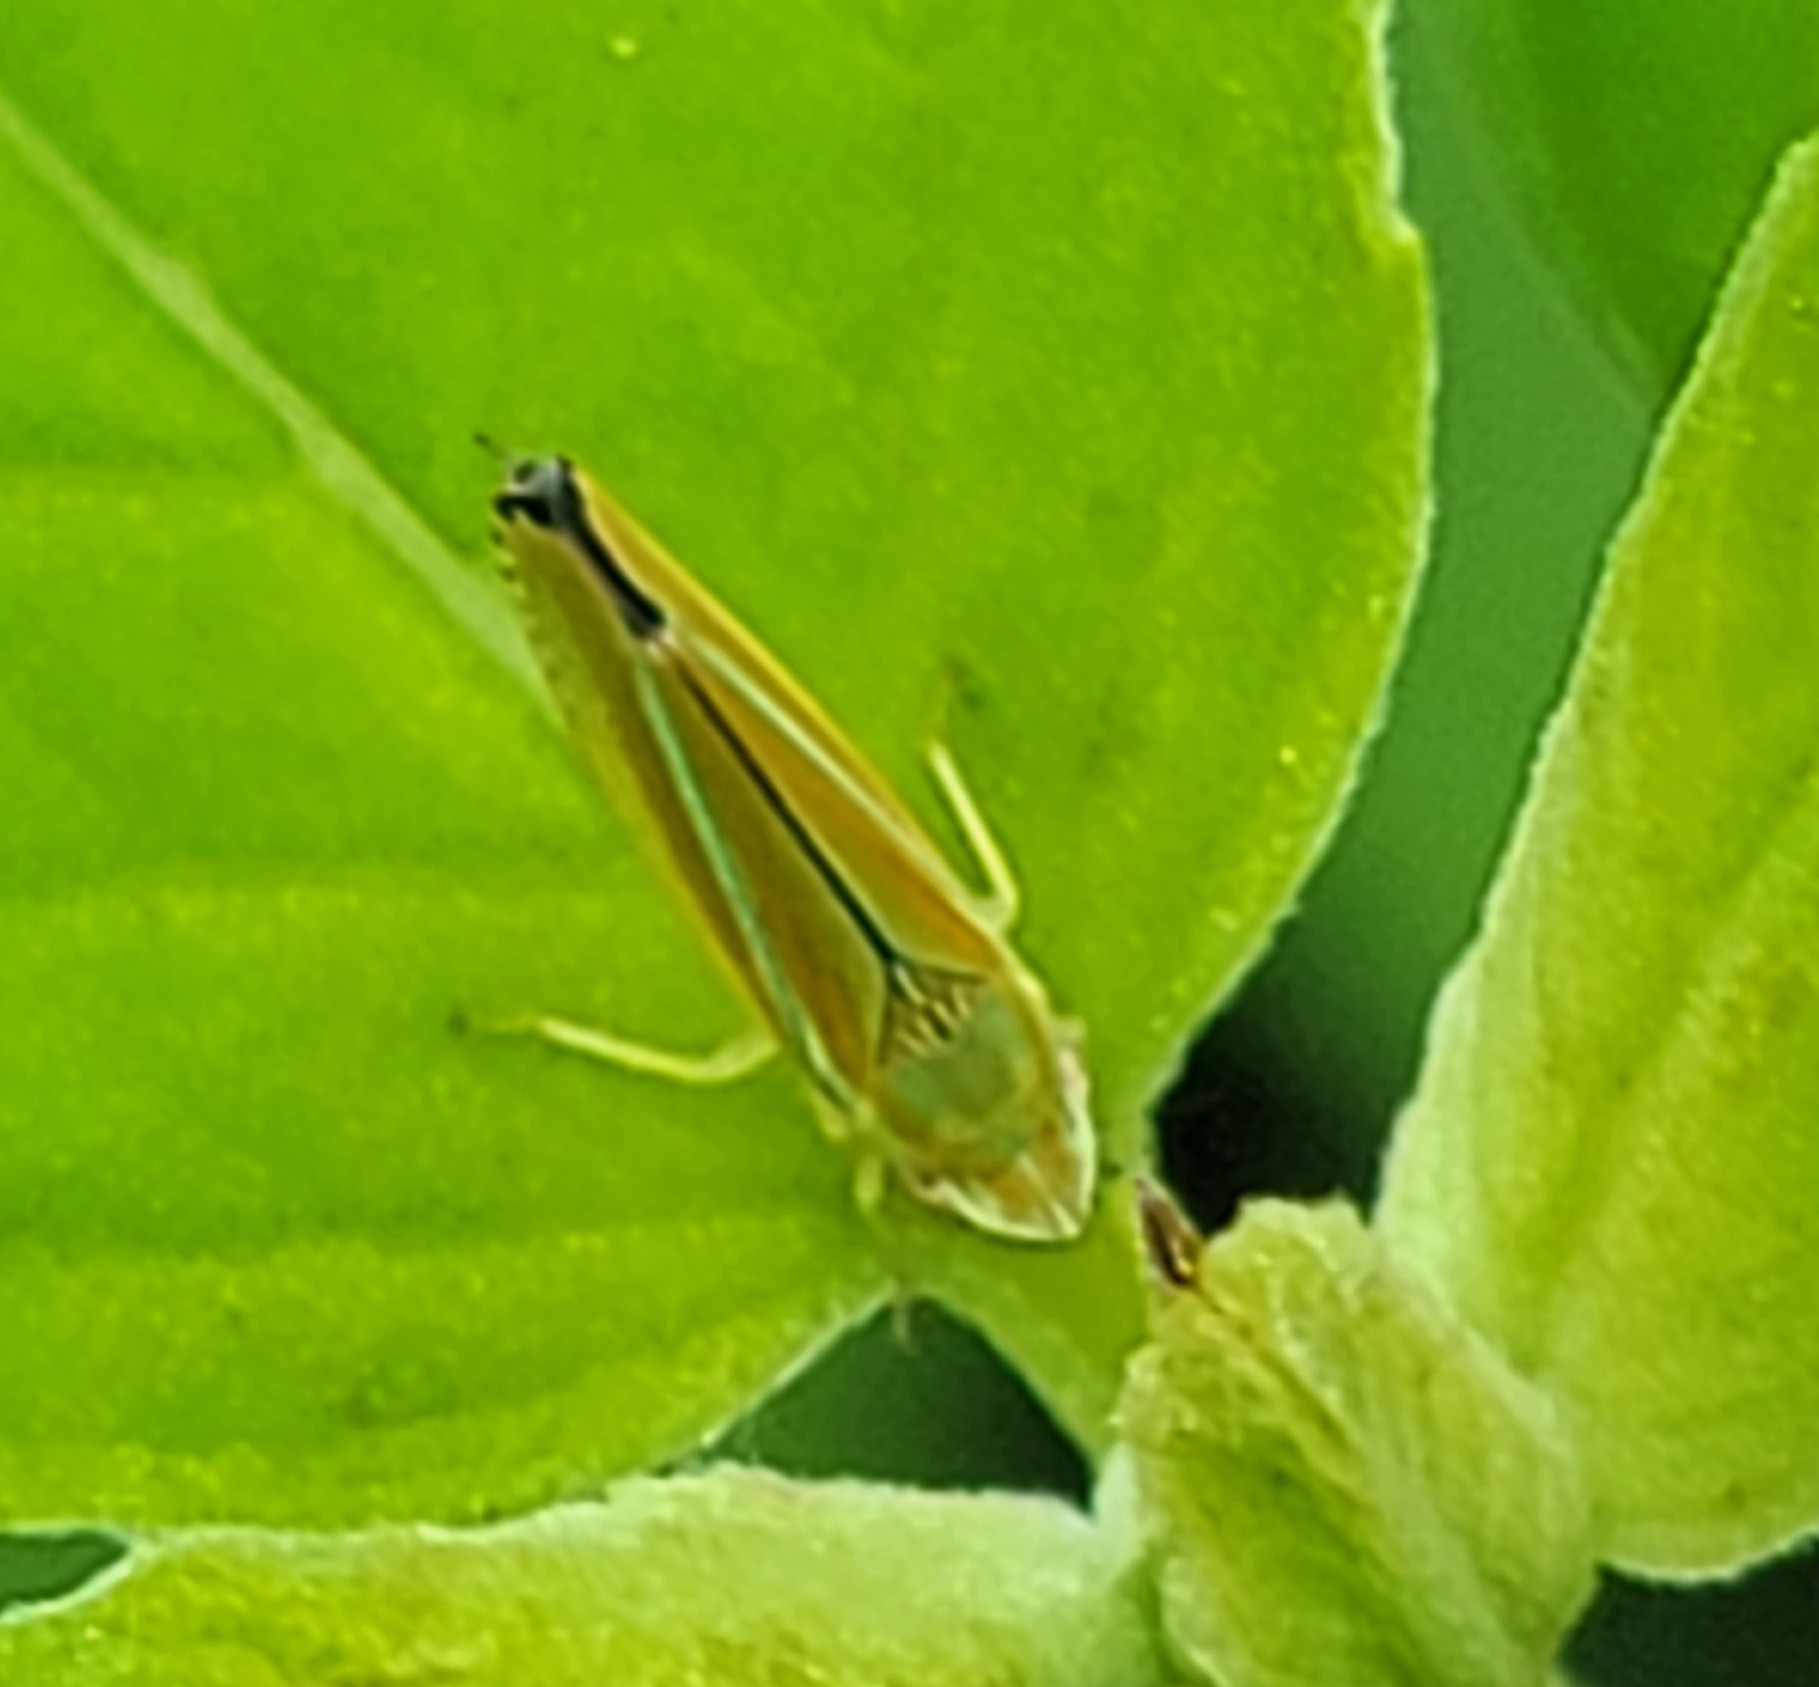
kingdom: Animalia
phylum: Arthropoda
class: Insecta
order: Hemiptera
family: Cicadellidae
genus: Graphocephala
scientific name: Graphocephala versuta
